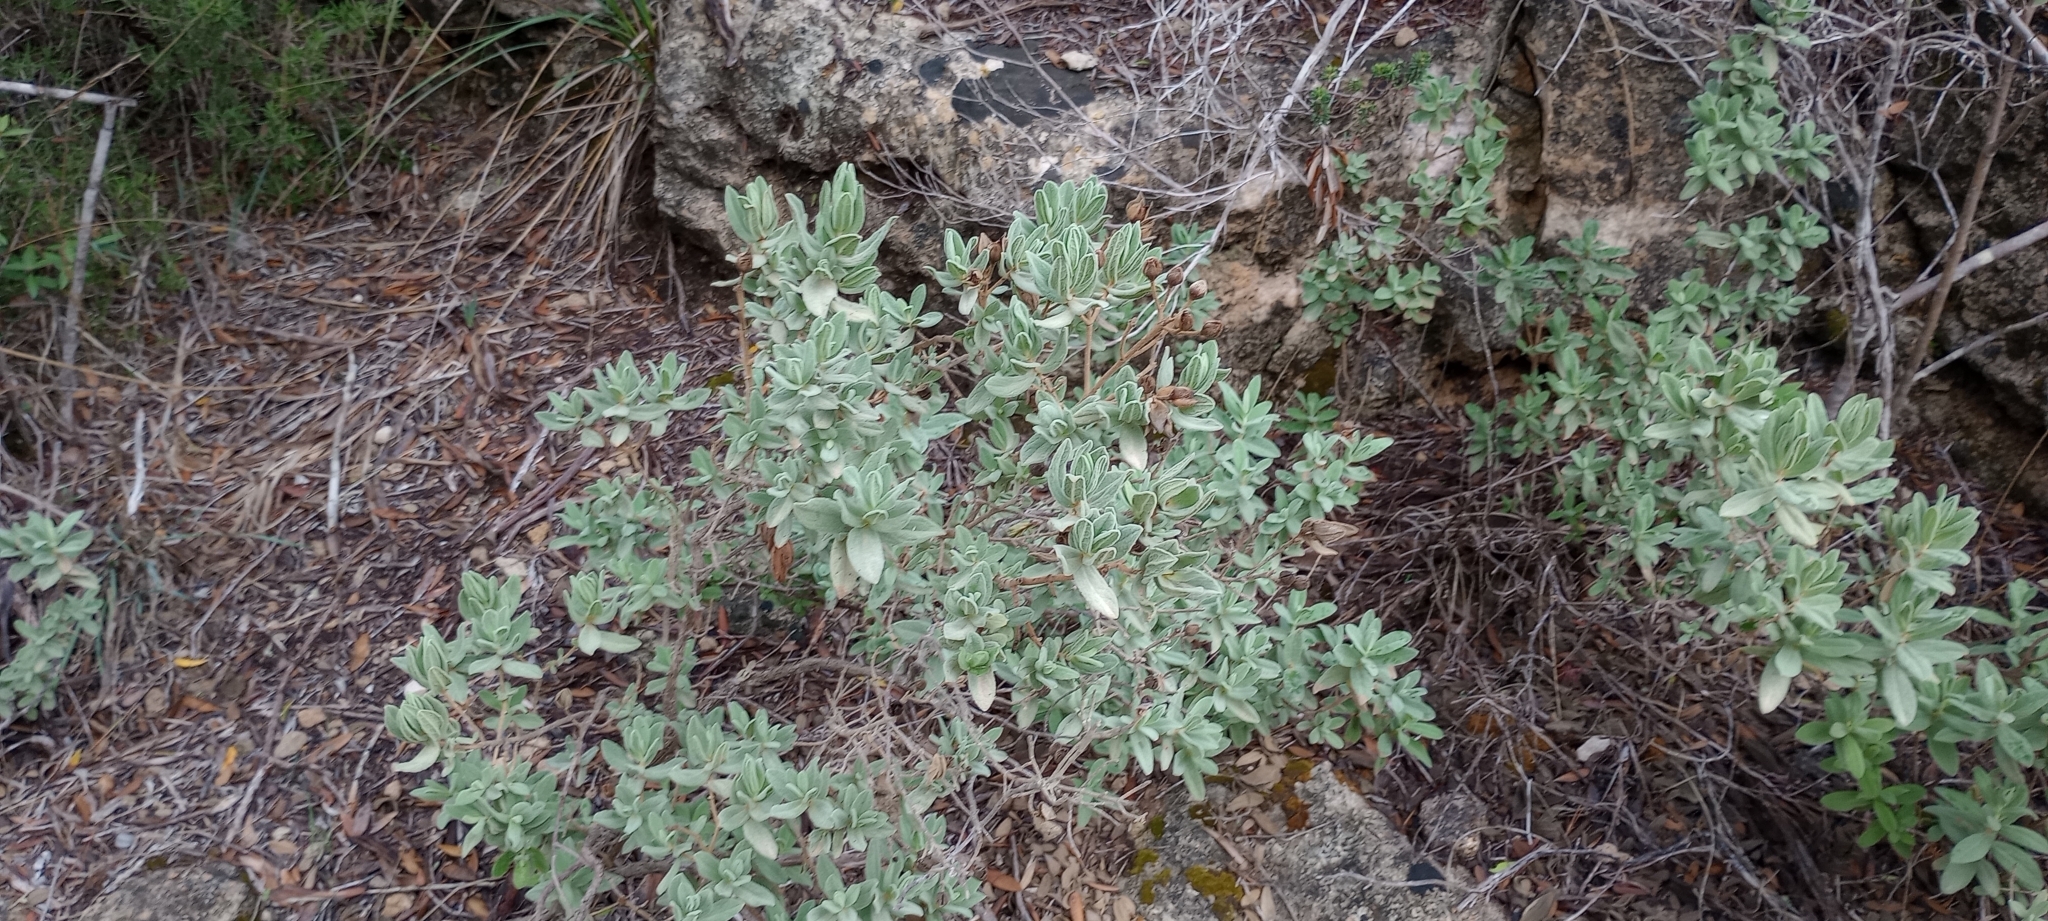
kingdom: Plantae
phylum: Tracheophyta
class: Magnoliopsida
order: Malvales
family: Cistaceae
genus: Cistus
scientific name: Cistus albidus
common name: White-leaf rock-rose
